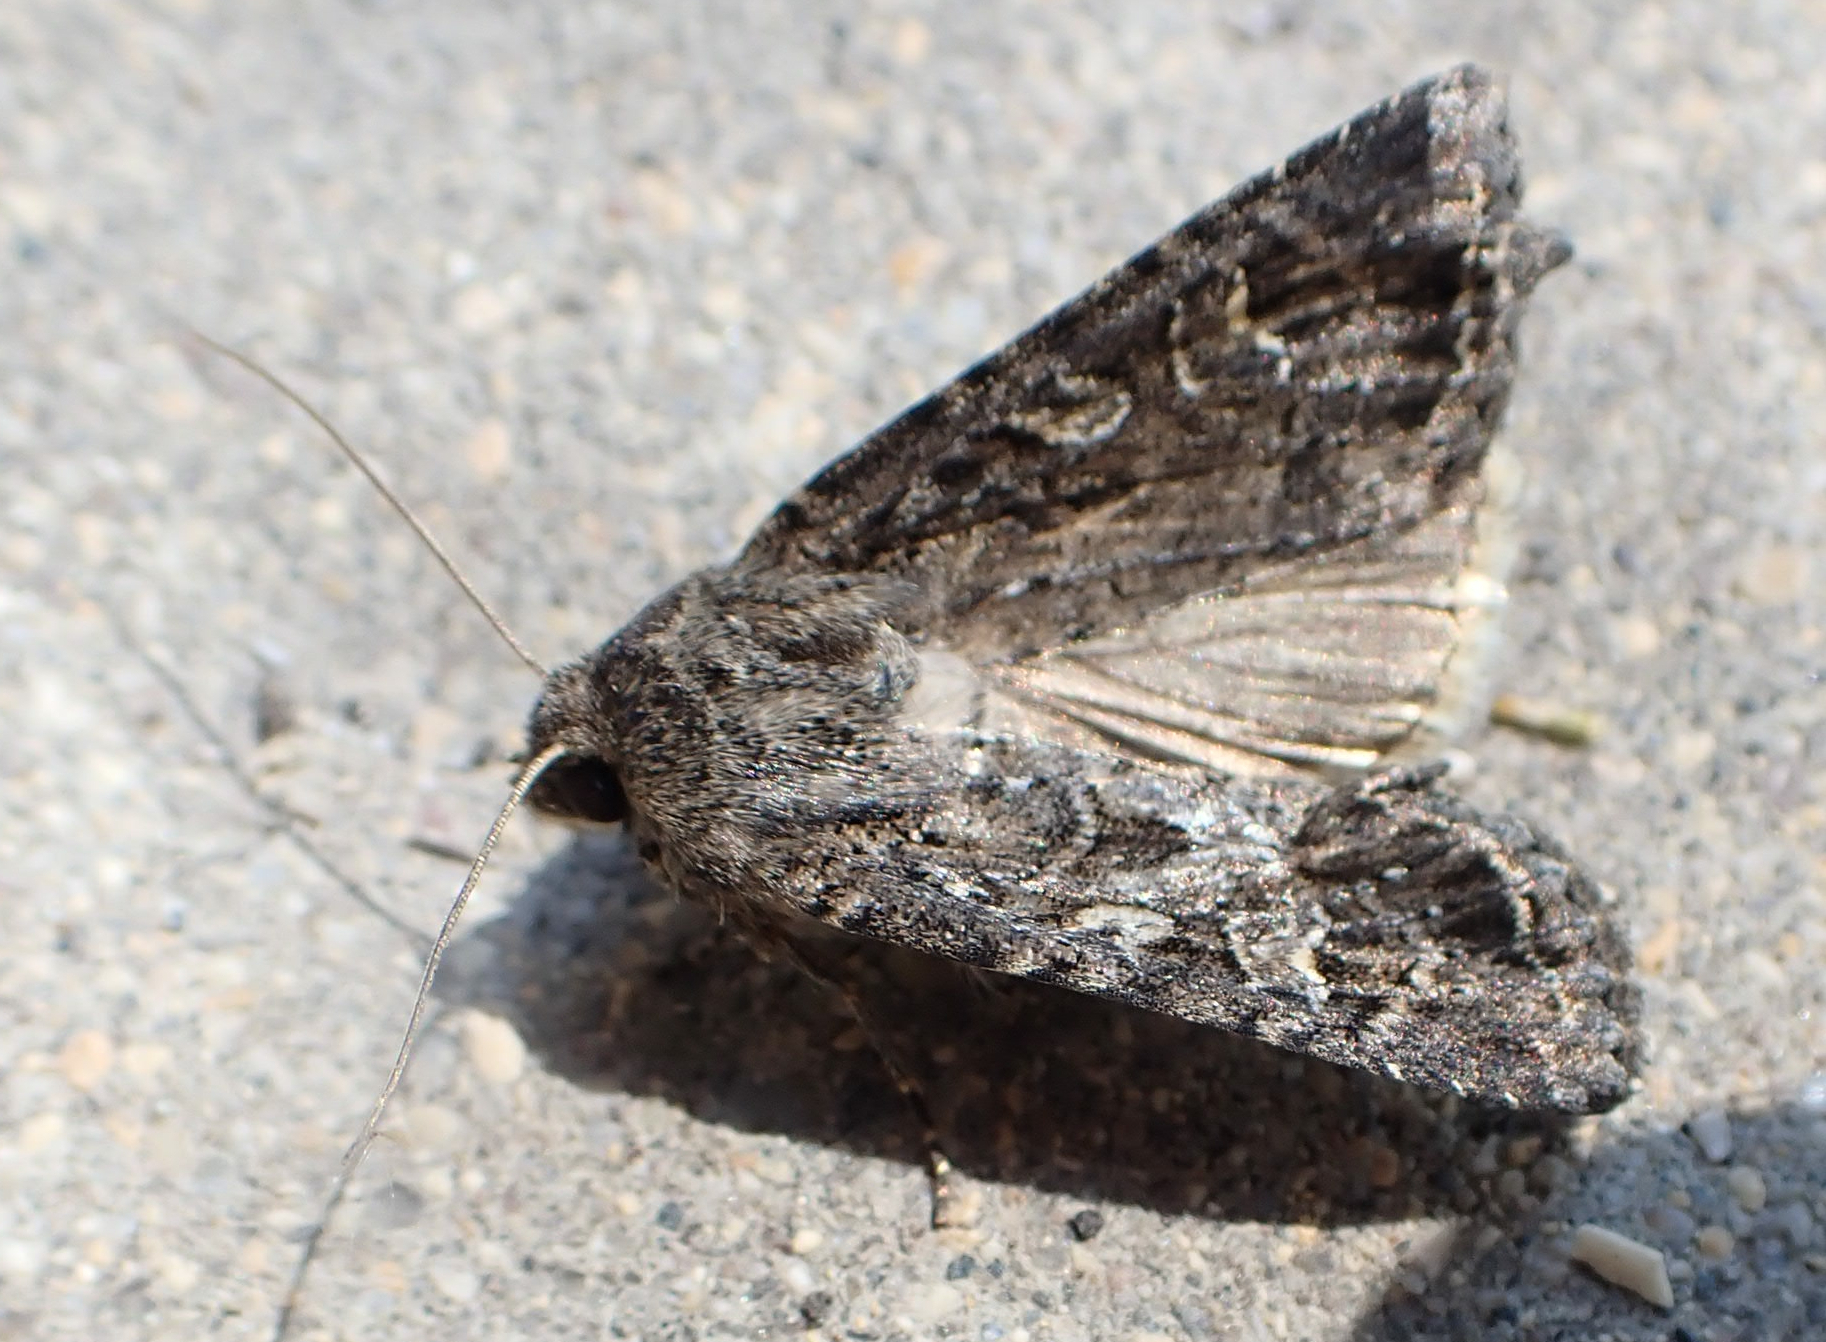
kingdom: Animalia
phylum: Arthropoda
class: Insecta
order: Lepidoptera
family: Noctuidae
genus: Apamea
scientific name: Apamea devastator
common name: Glassy cutworm
